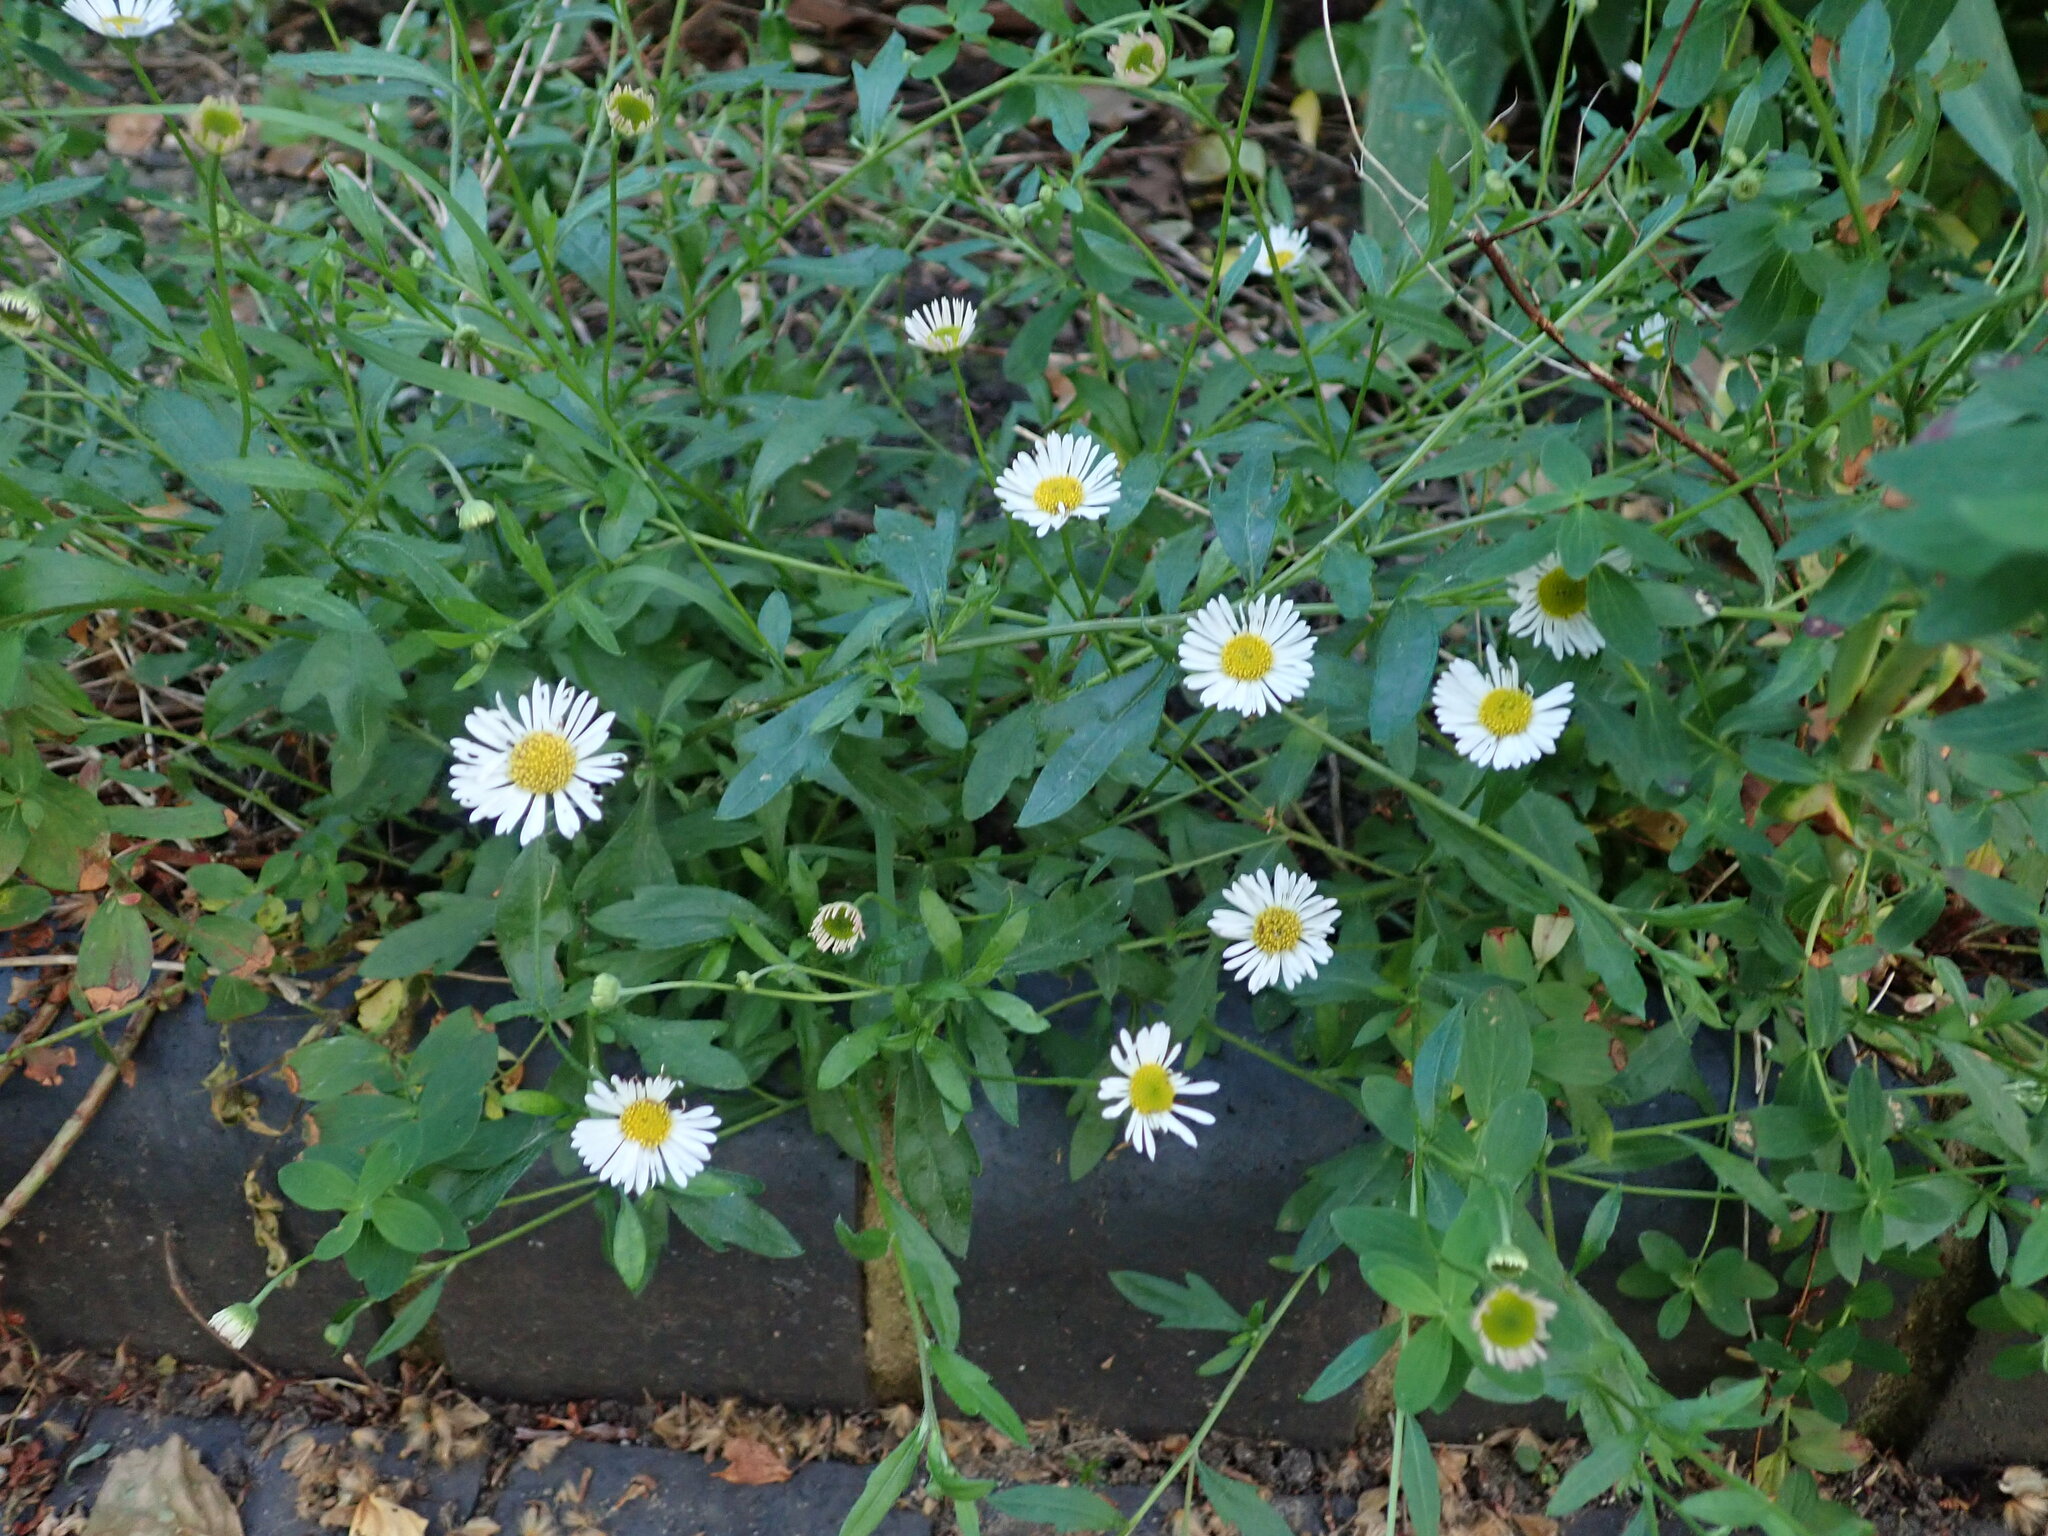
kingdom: Plantae
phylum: Tracheophyta
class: Magnoliopsida
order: Asterales
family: Asteraceae
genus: Erigeron
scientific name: Erigeron karvinskianus
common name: Mexican fleabane
